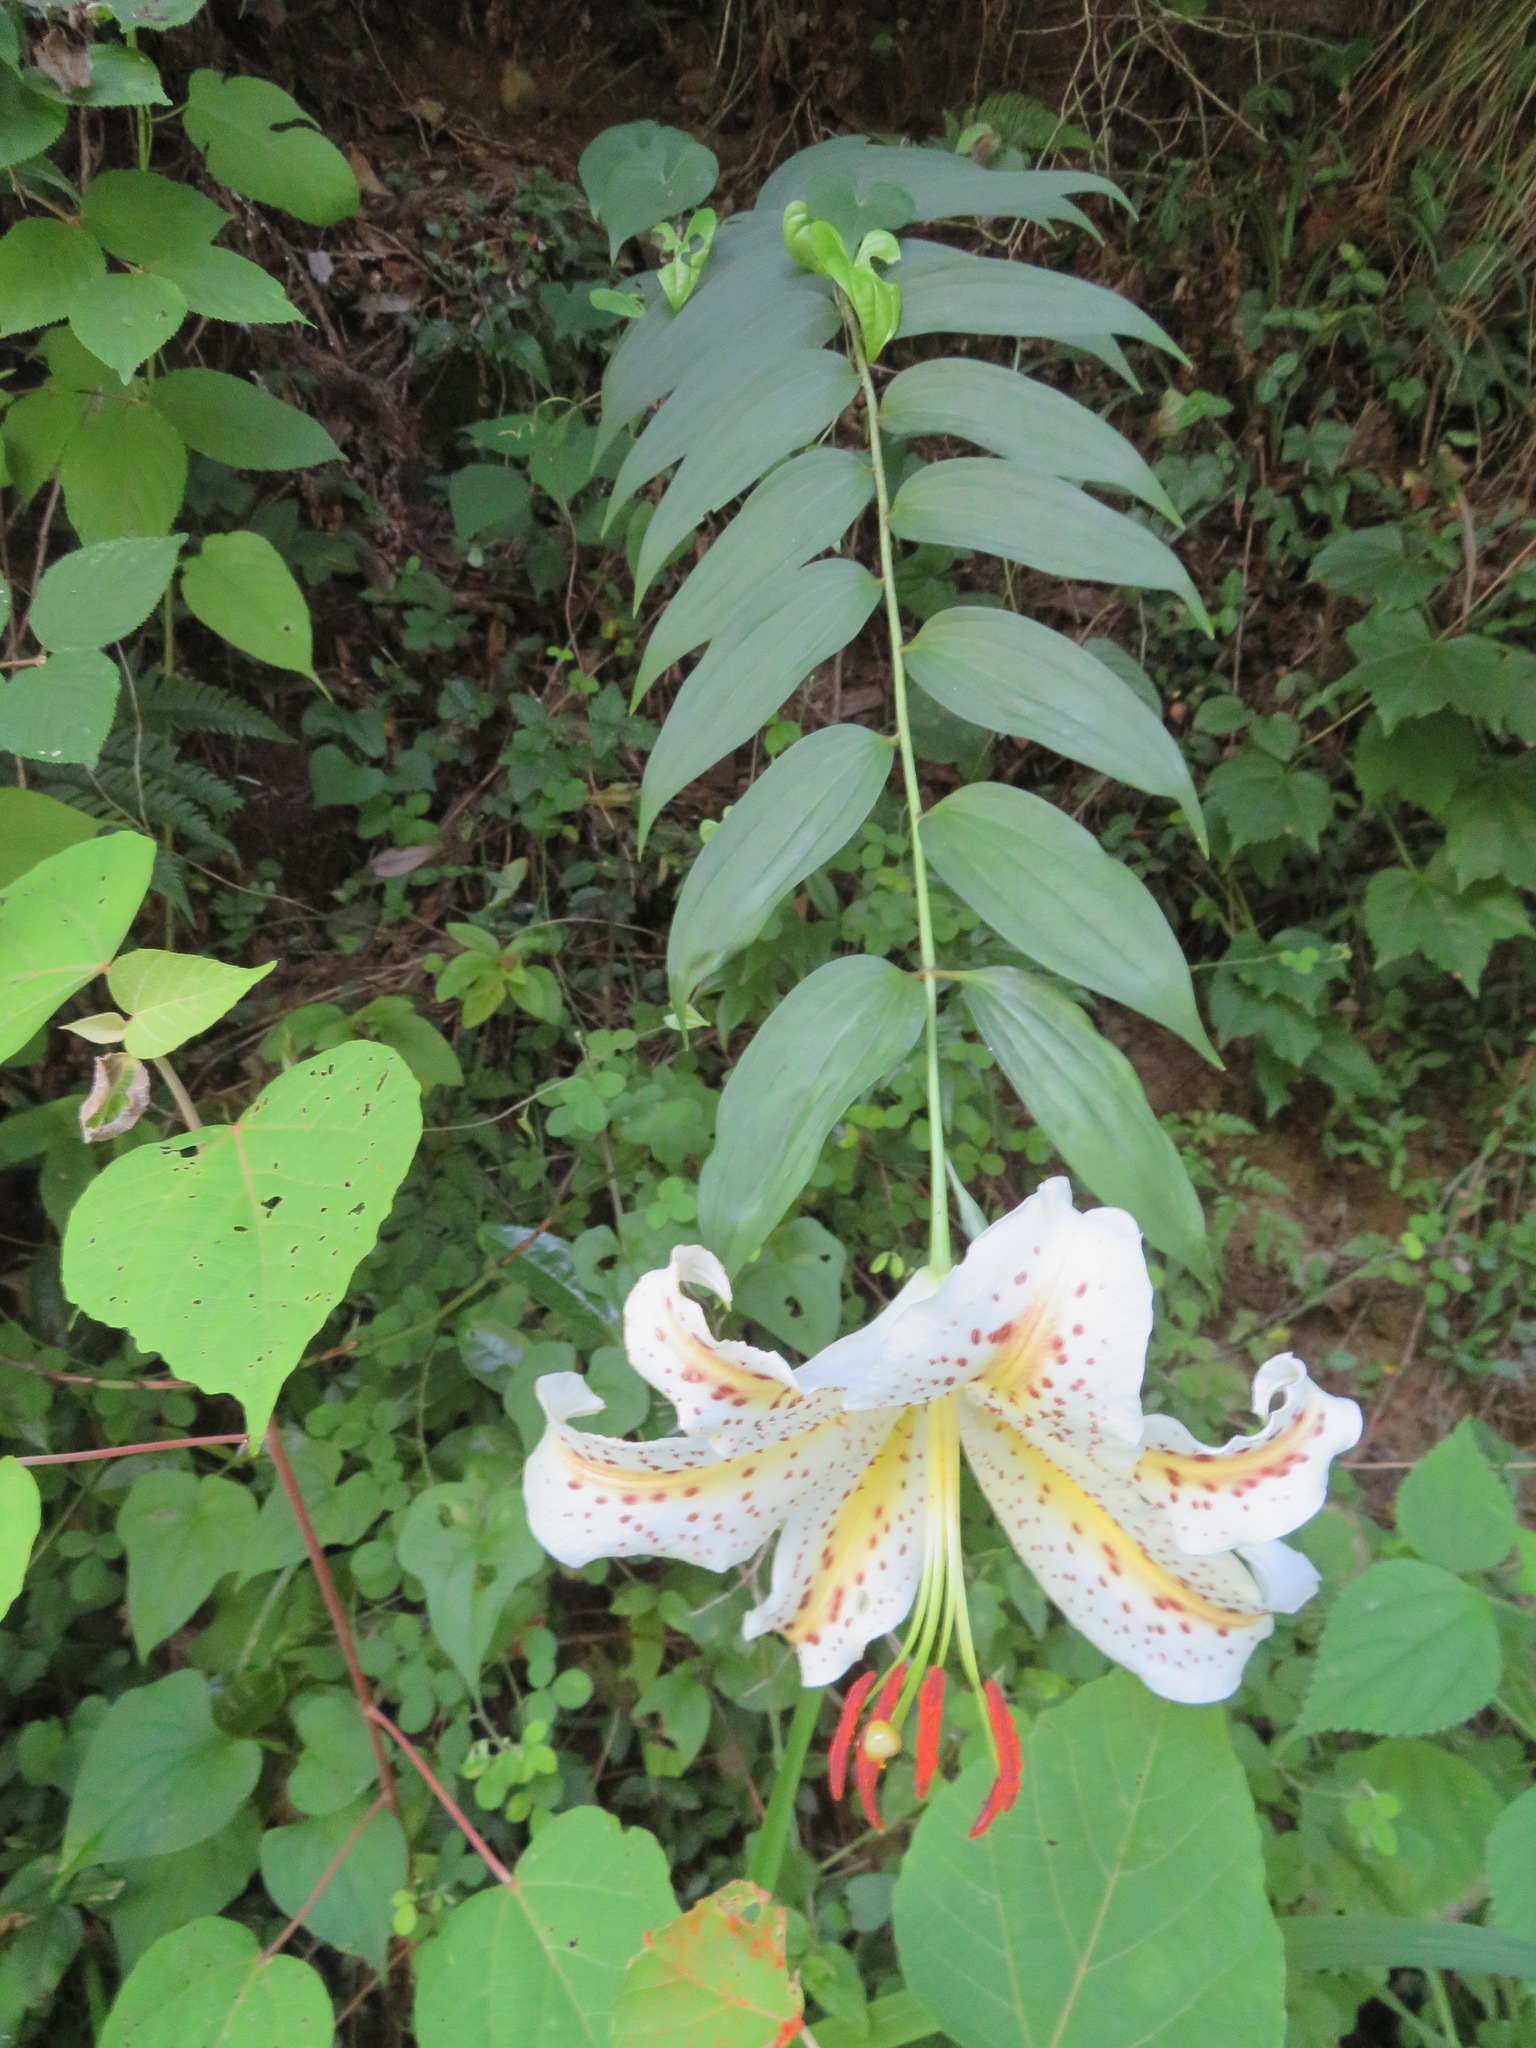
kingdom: Plantae
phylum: Tracheophyta
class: Liliopsida
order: Liliales
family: Liliaceae
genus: Lilium
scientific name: Lilium auratum
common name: Golden-ray lily
